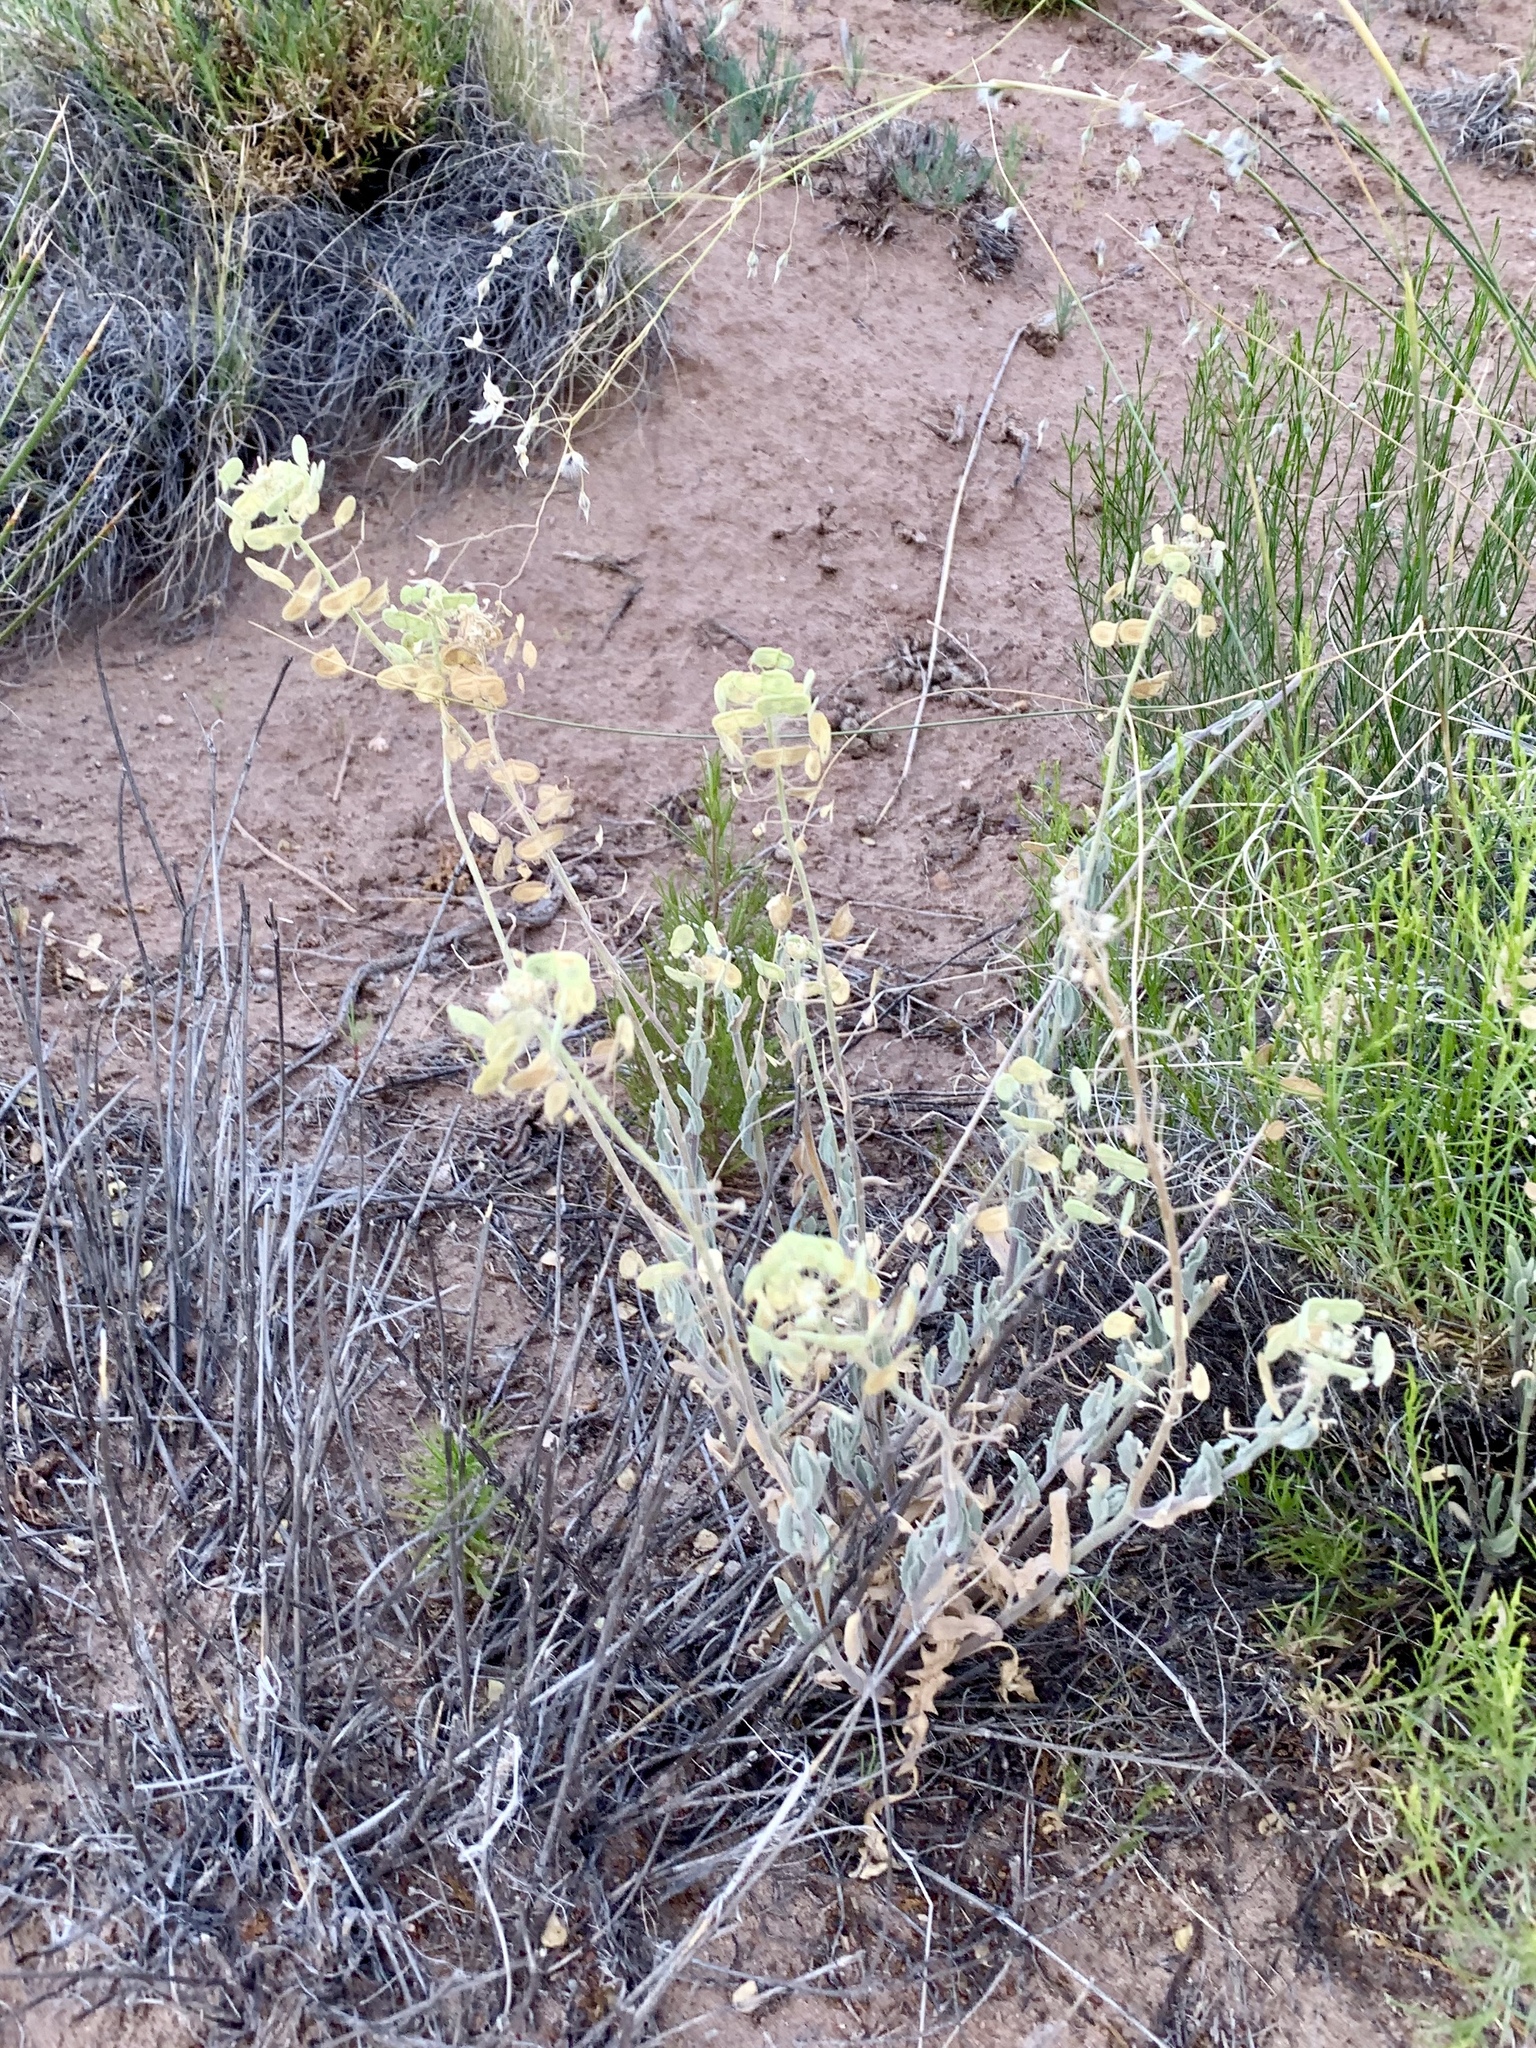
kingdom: Plantae
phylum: Tracheophyta
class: Magnoliopsida
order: Brassicales
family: Brassicaceae
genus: Dimorphocarpa
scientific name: Dimorphocarpa wislizenii
